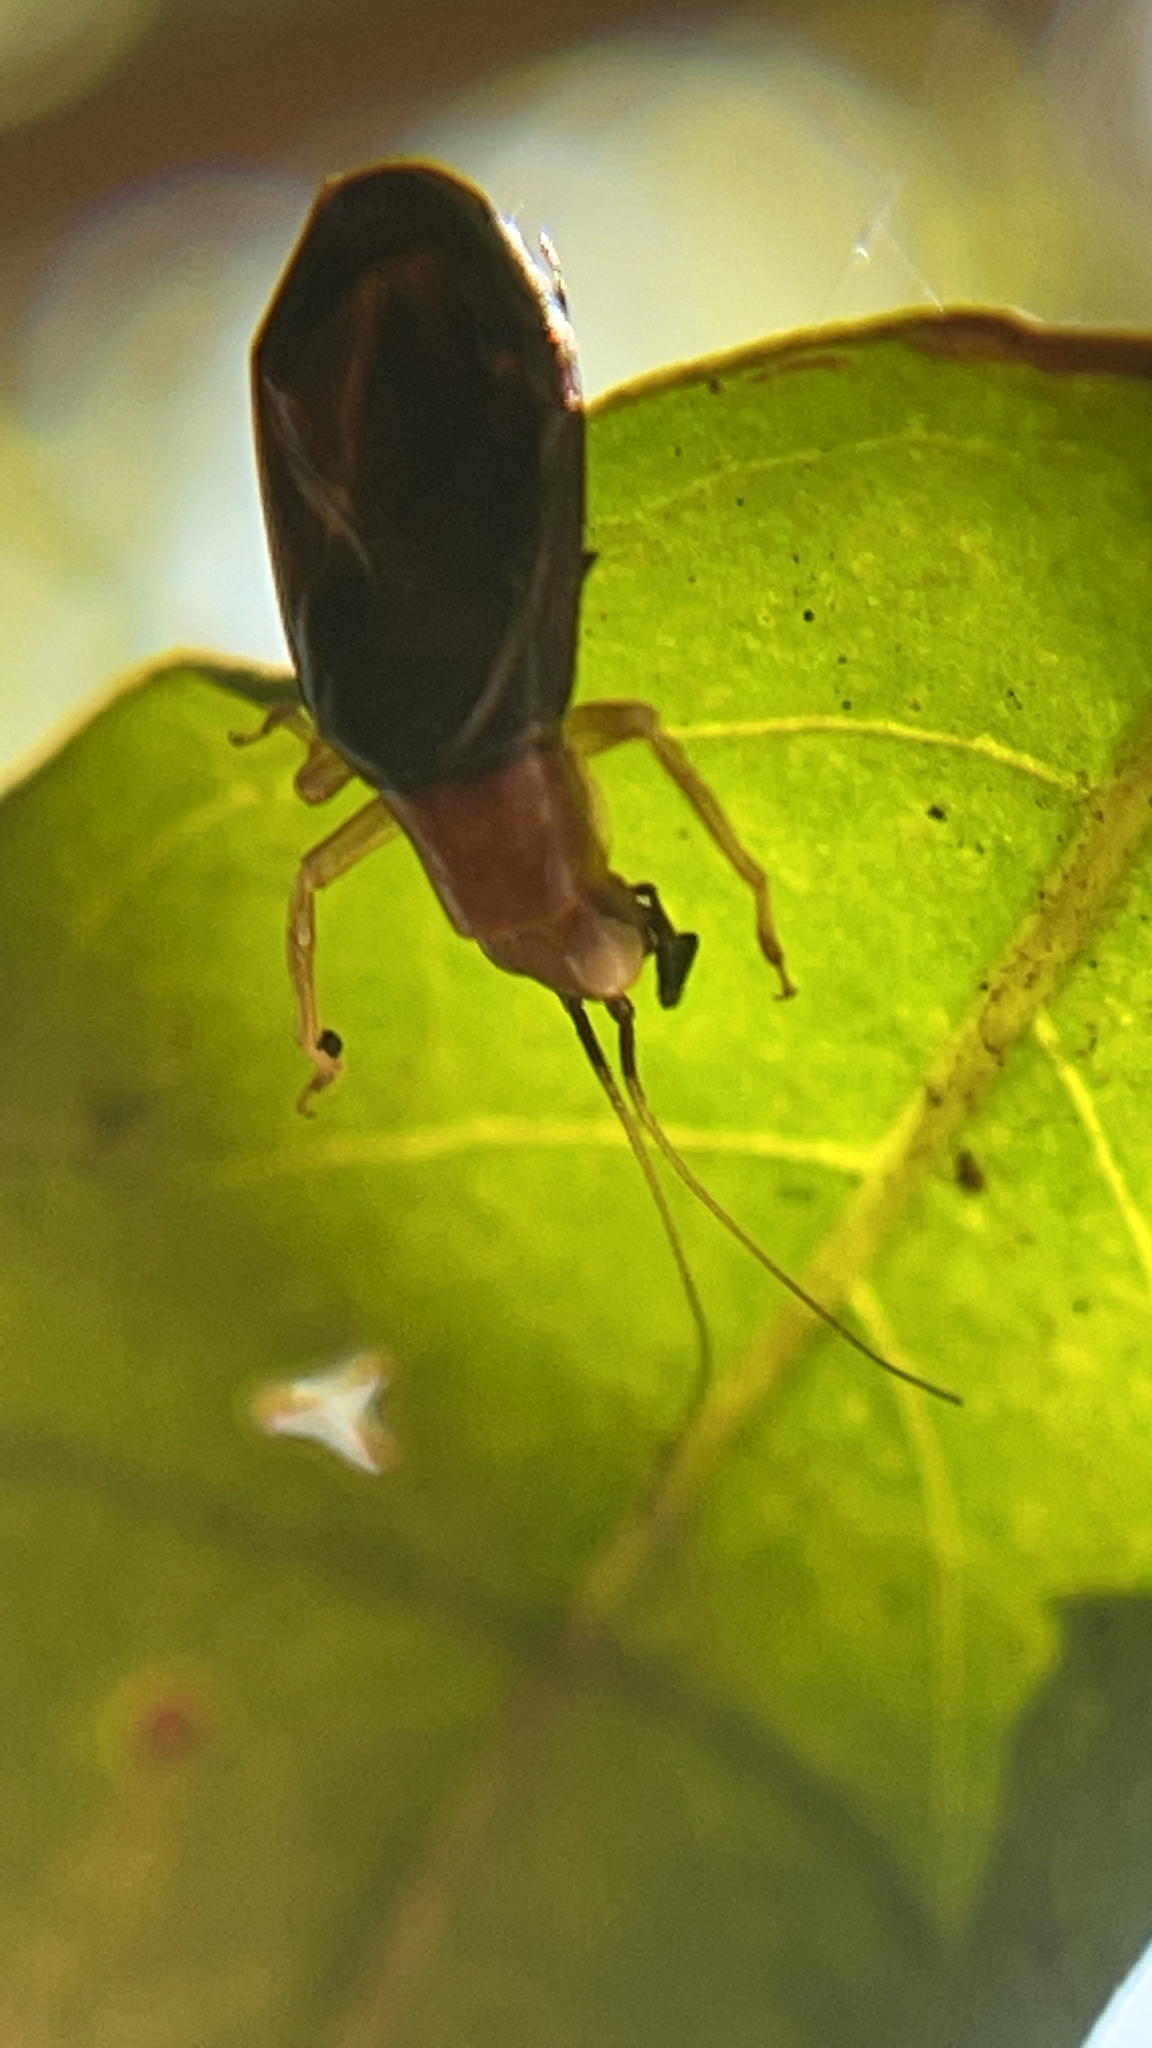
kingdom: Animalia
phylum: Arthropoda
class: Insecta
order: Orthoptera
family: Trigonidiidae
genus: Phyllopalpus
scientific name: Phyllopalpus pulchellus
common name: Handsome trig
